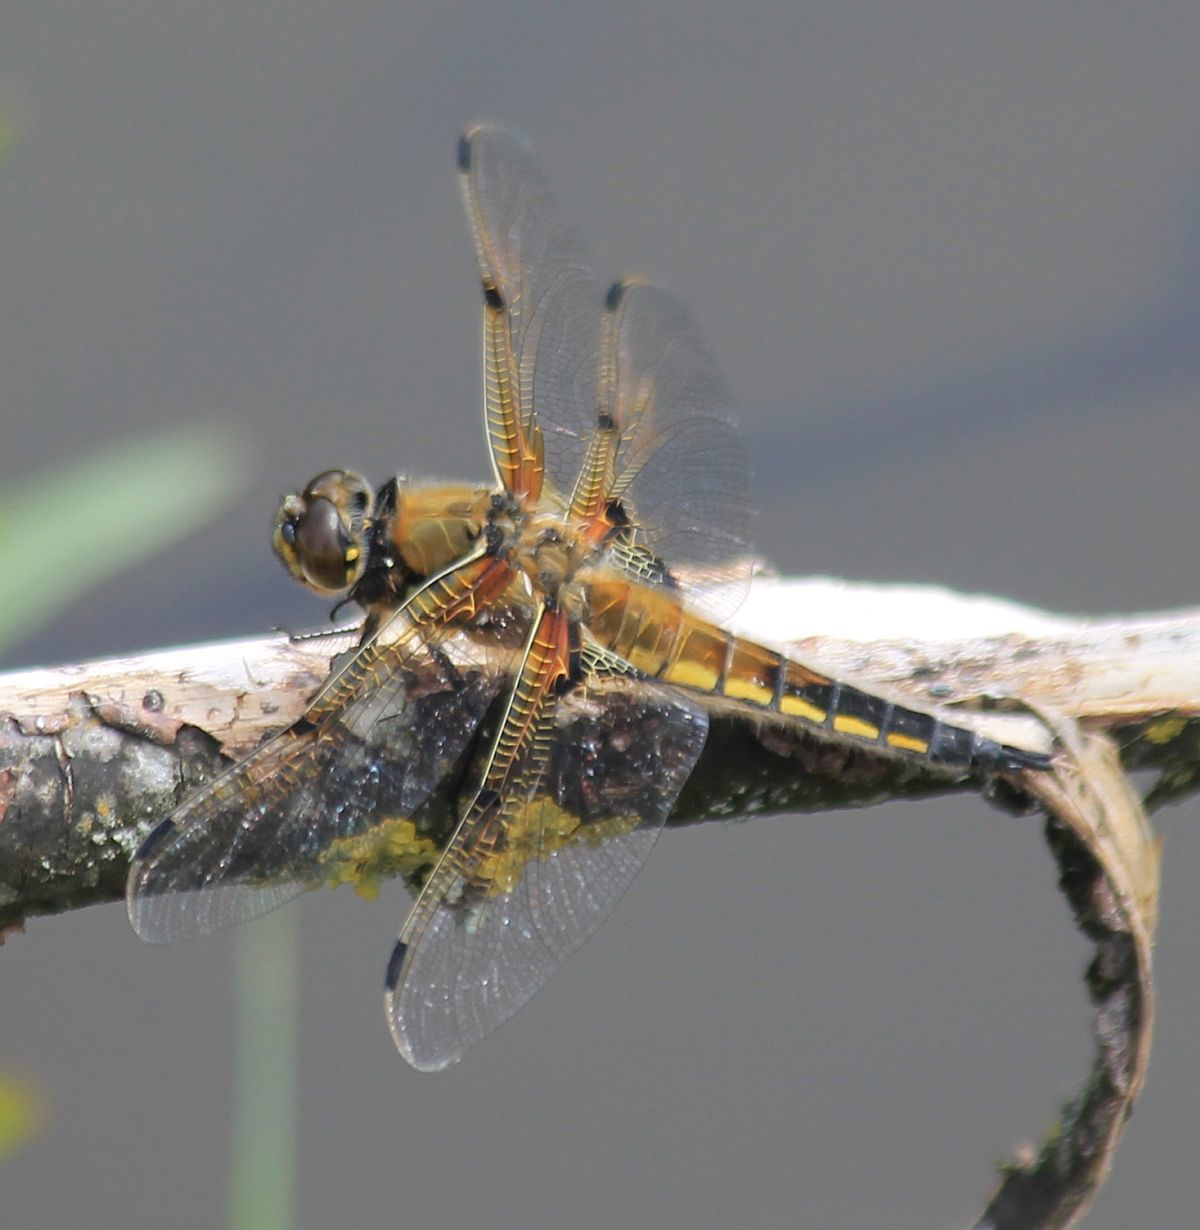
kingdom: Animalia
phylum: Arthropoda
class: Insecta
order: Odonata
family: Libellulidae
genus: Libellula
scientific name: Libellula quadrimaculata
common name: Four-spotted chaser
